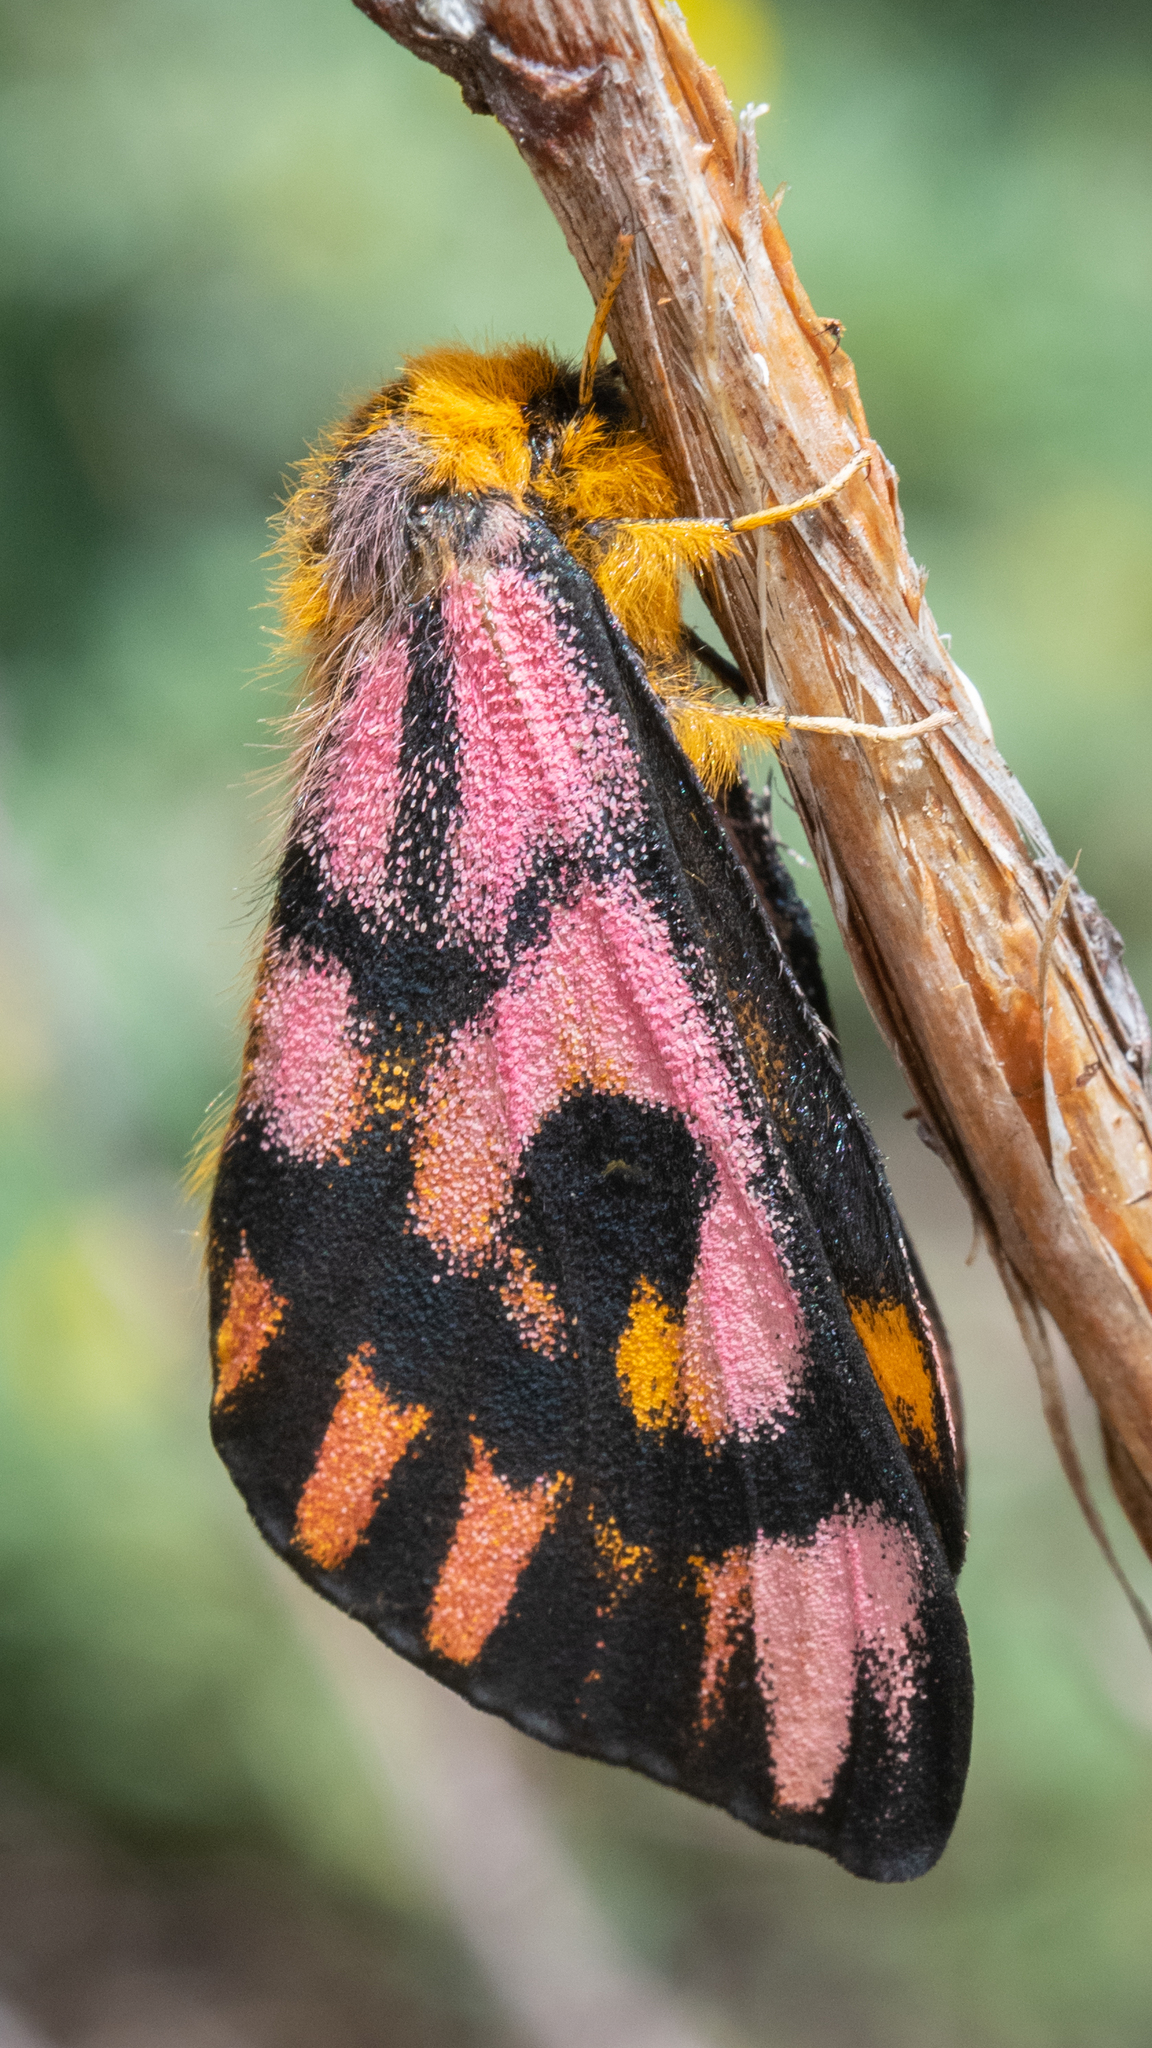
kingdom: Animalia
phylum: Arthropoda
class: Insecta
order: Lepidoptera
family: Saturniidae
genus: Hemileuca
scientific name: Hemileuca eglanterina
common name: Western sheepmoth
